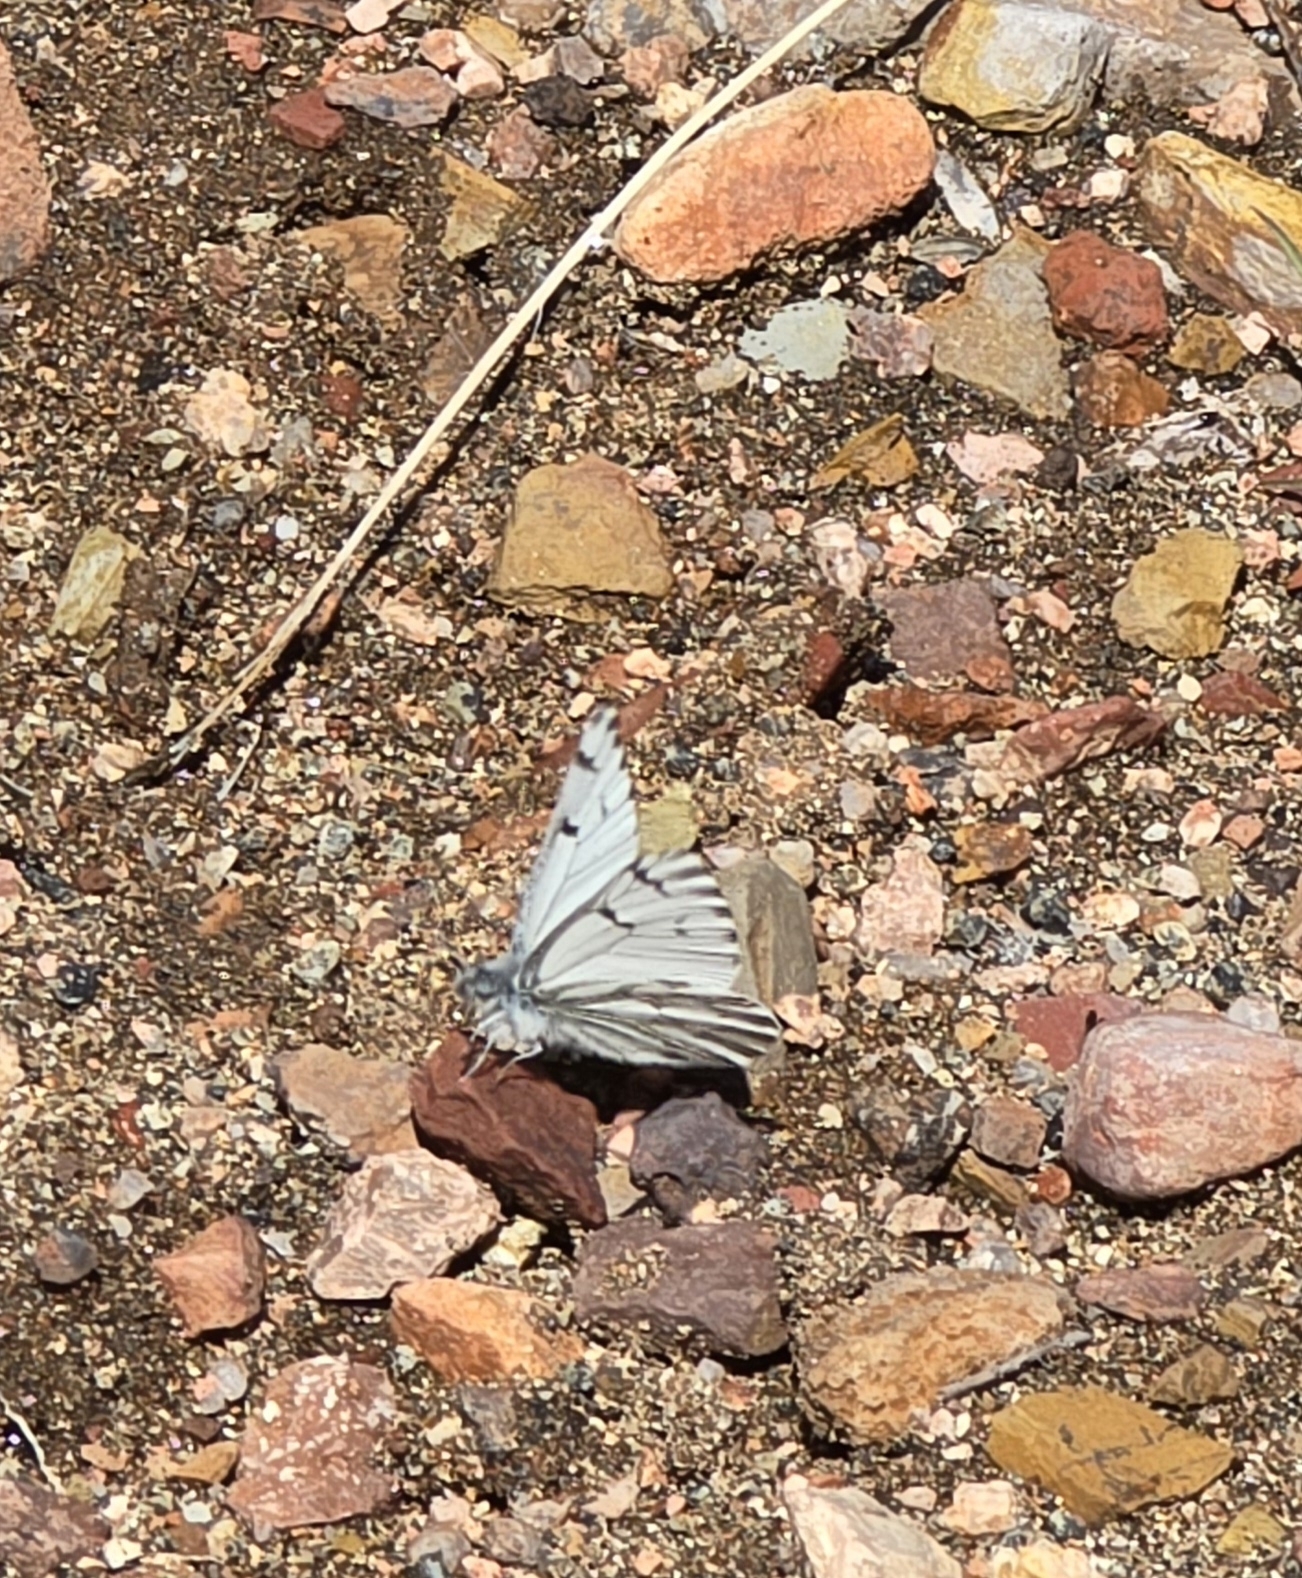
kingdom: Animalia
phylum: Arthropoda
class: Insecta
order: Lepidoptera
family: Pieridae
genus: Pontia
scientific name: Pontia sisymbrii
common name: California white
